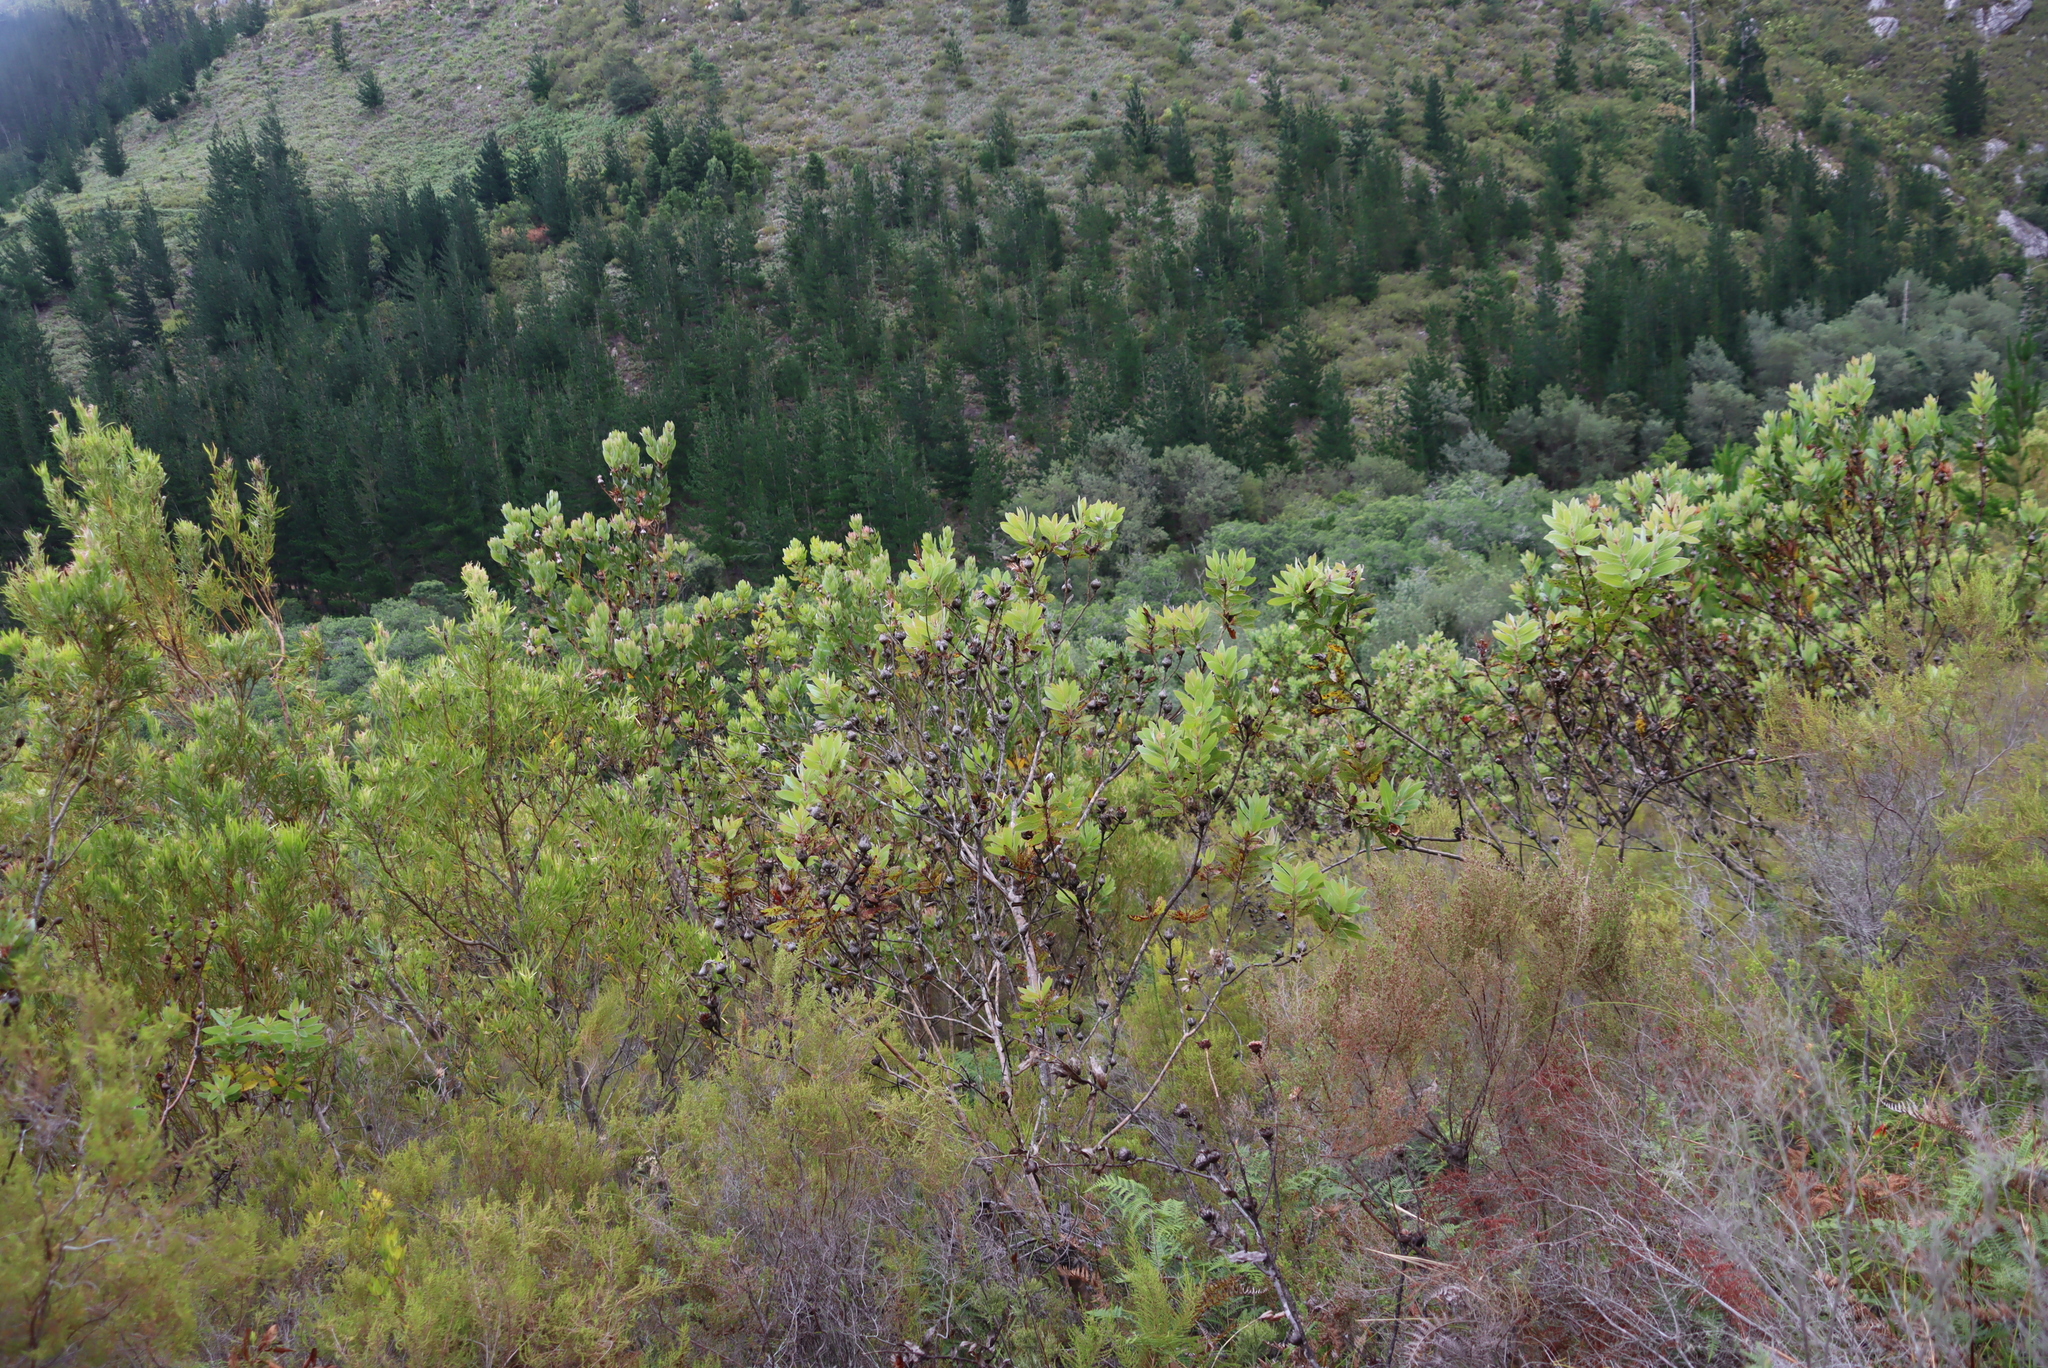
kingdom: Plantae
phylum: Tracheophyta
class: Magnoliopsida
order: Proteales
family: Proteaceae
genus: Protea
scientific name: Protea aurea
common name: Shuttlecock sugarbush
